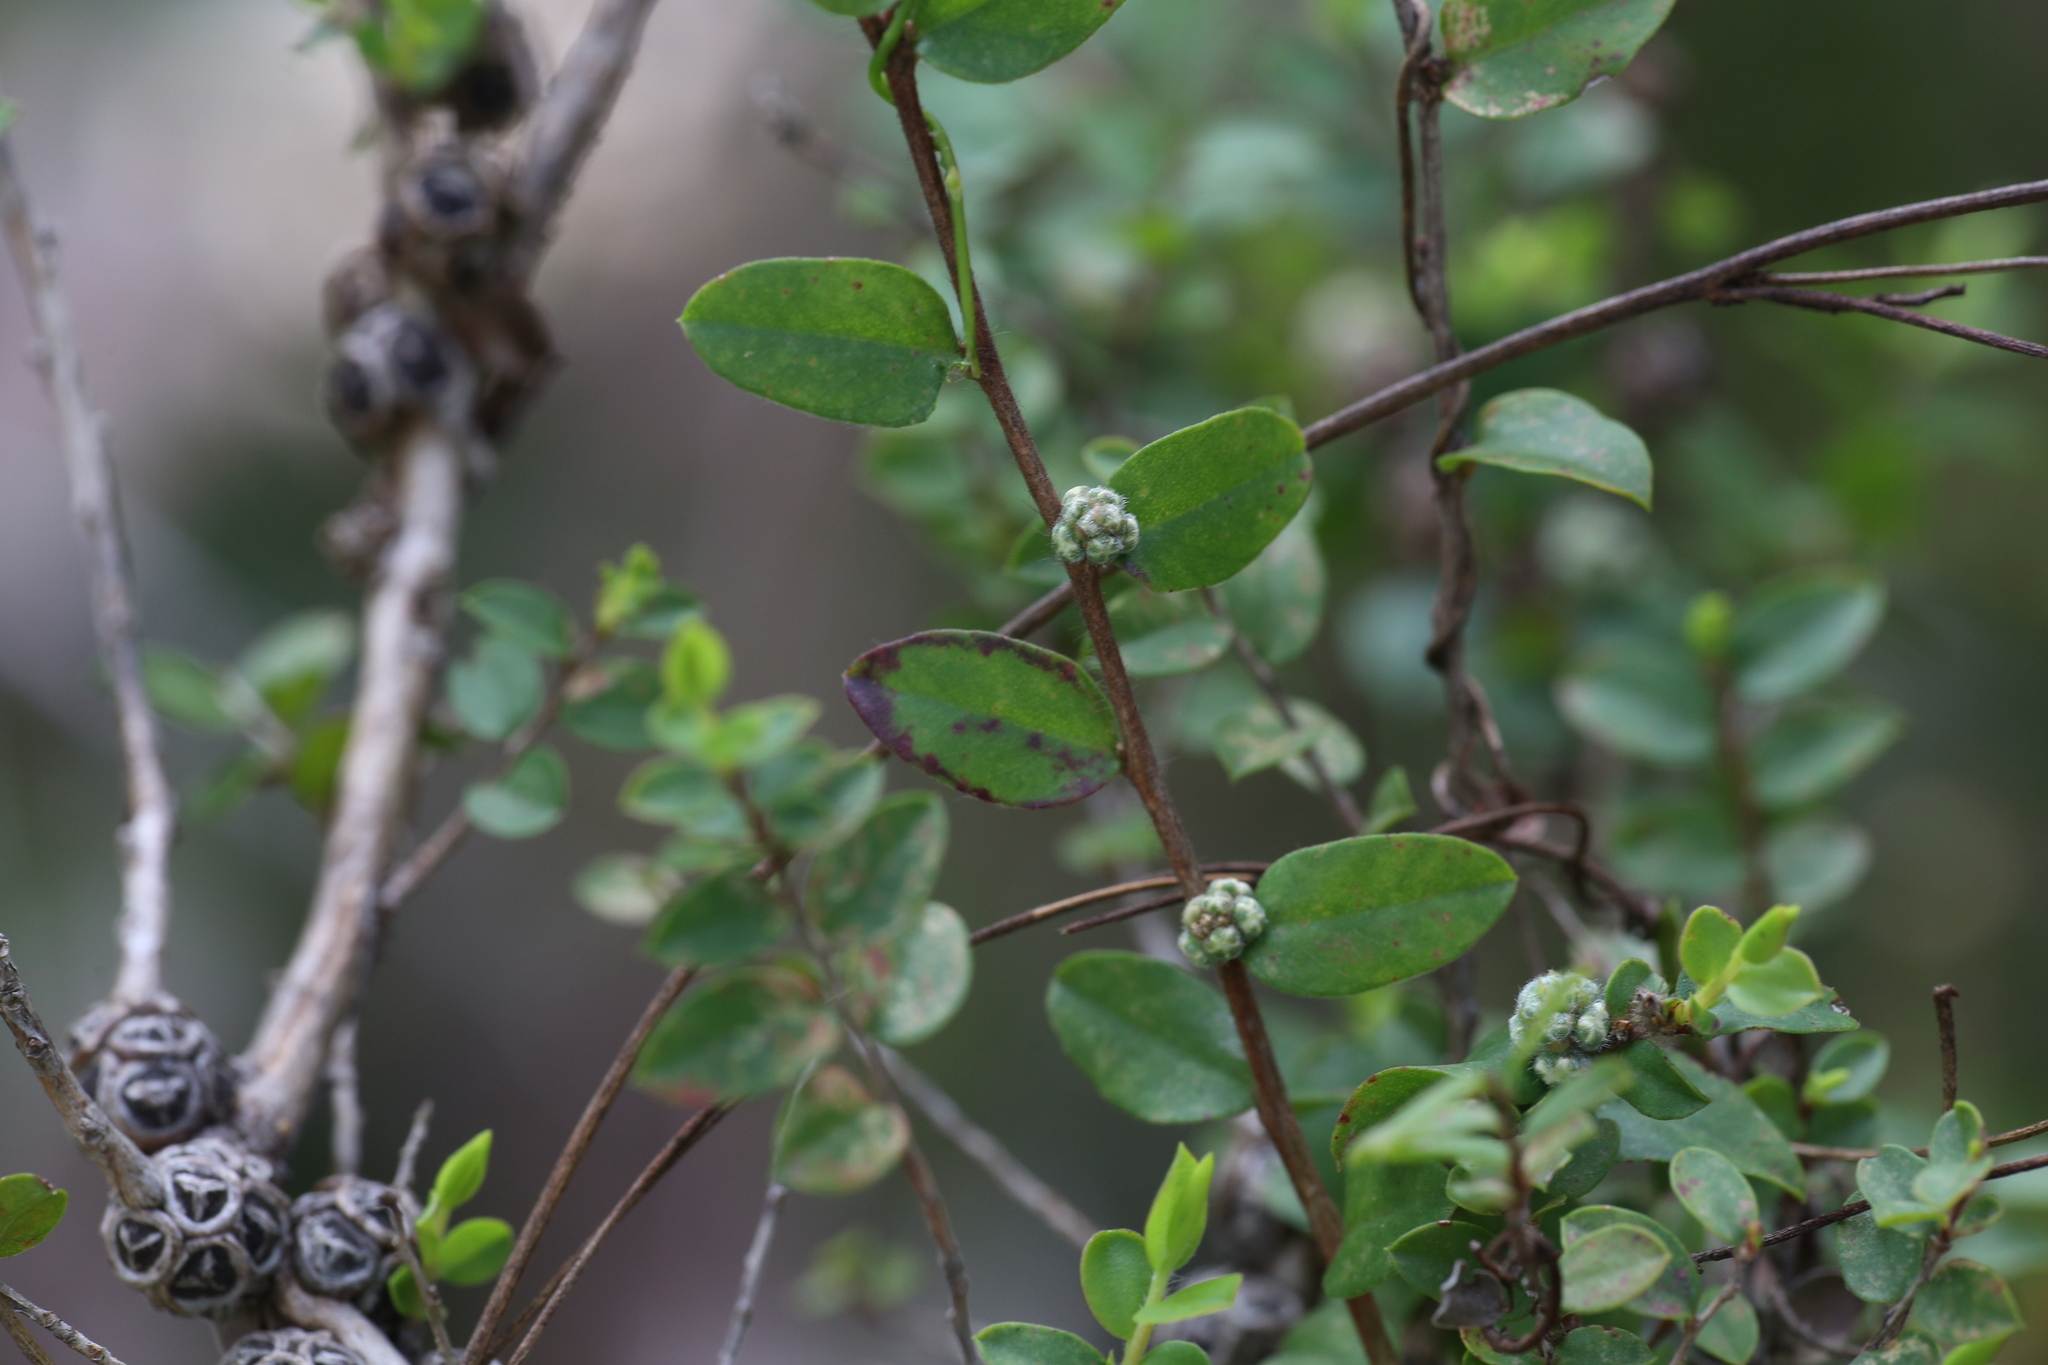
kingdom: Plantae
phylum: Tracheophyta
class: Magnoliopsida
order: Myrtales
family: Myrtaceae
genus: Agonis
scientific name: Agonis theiformis
